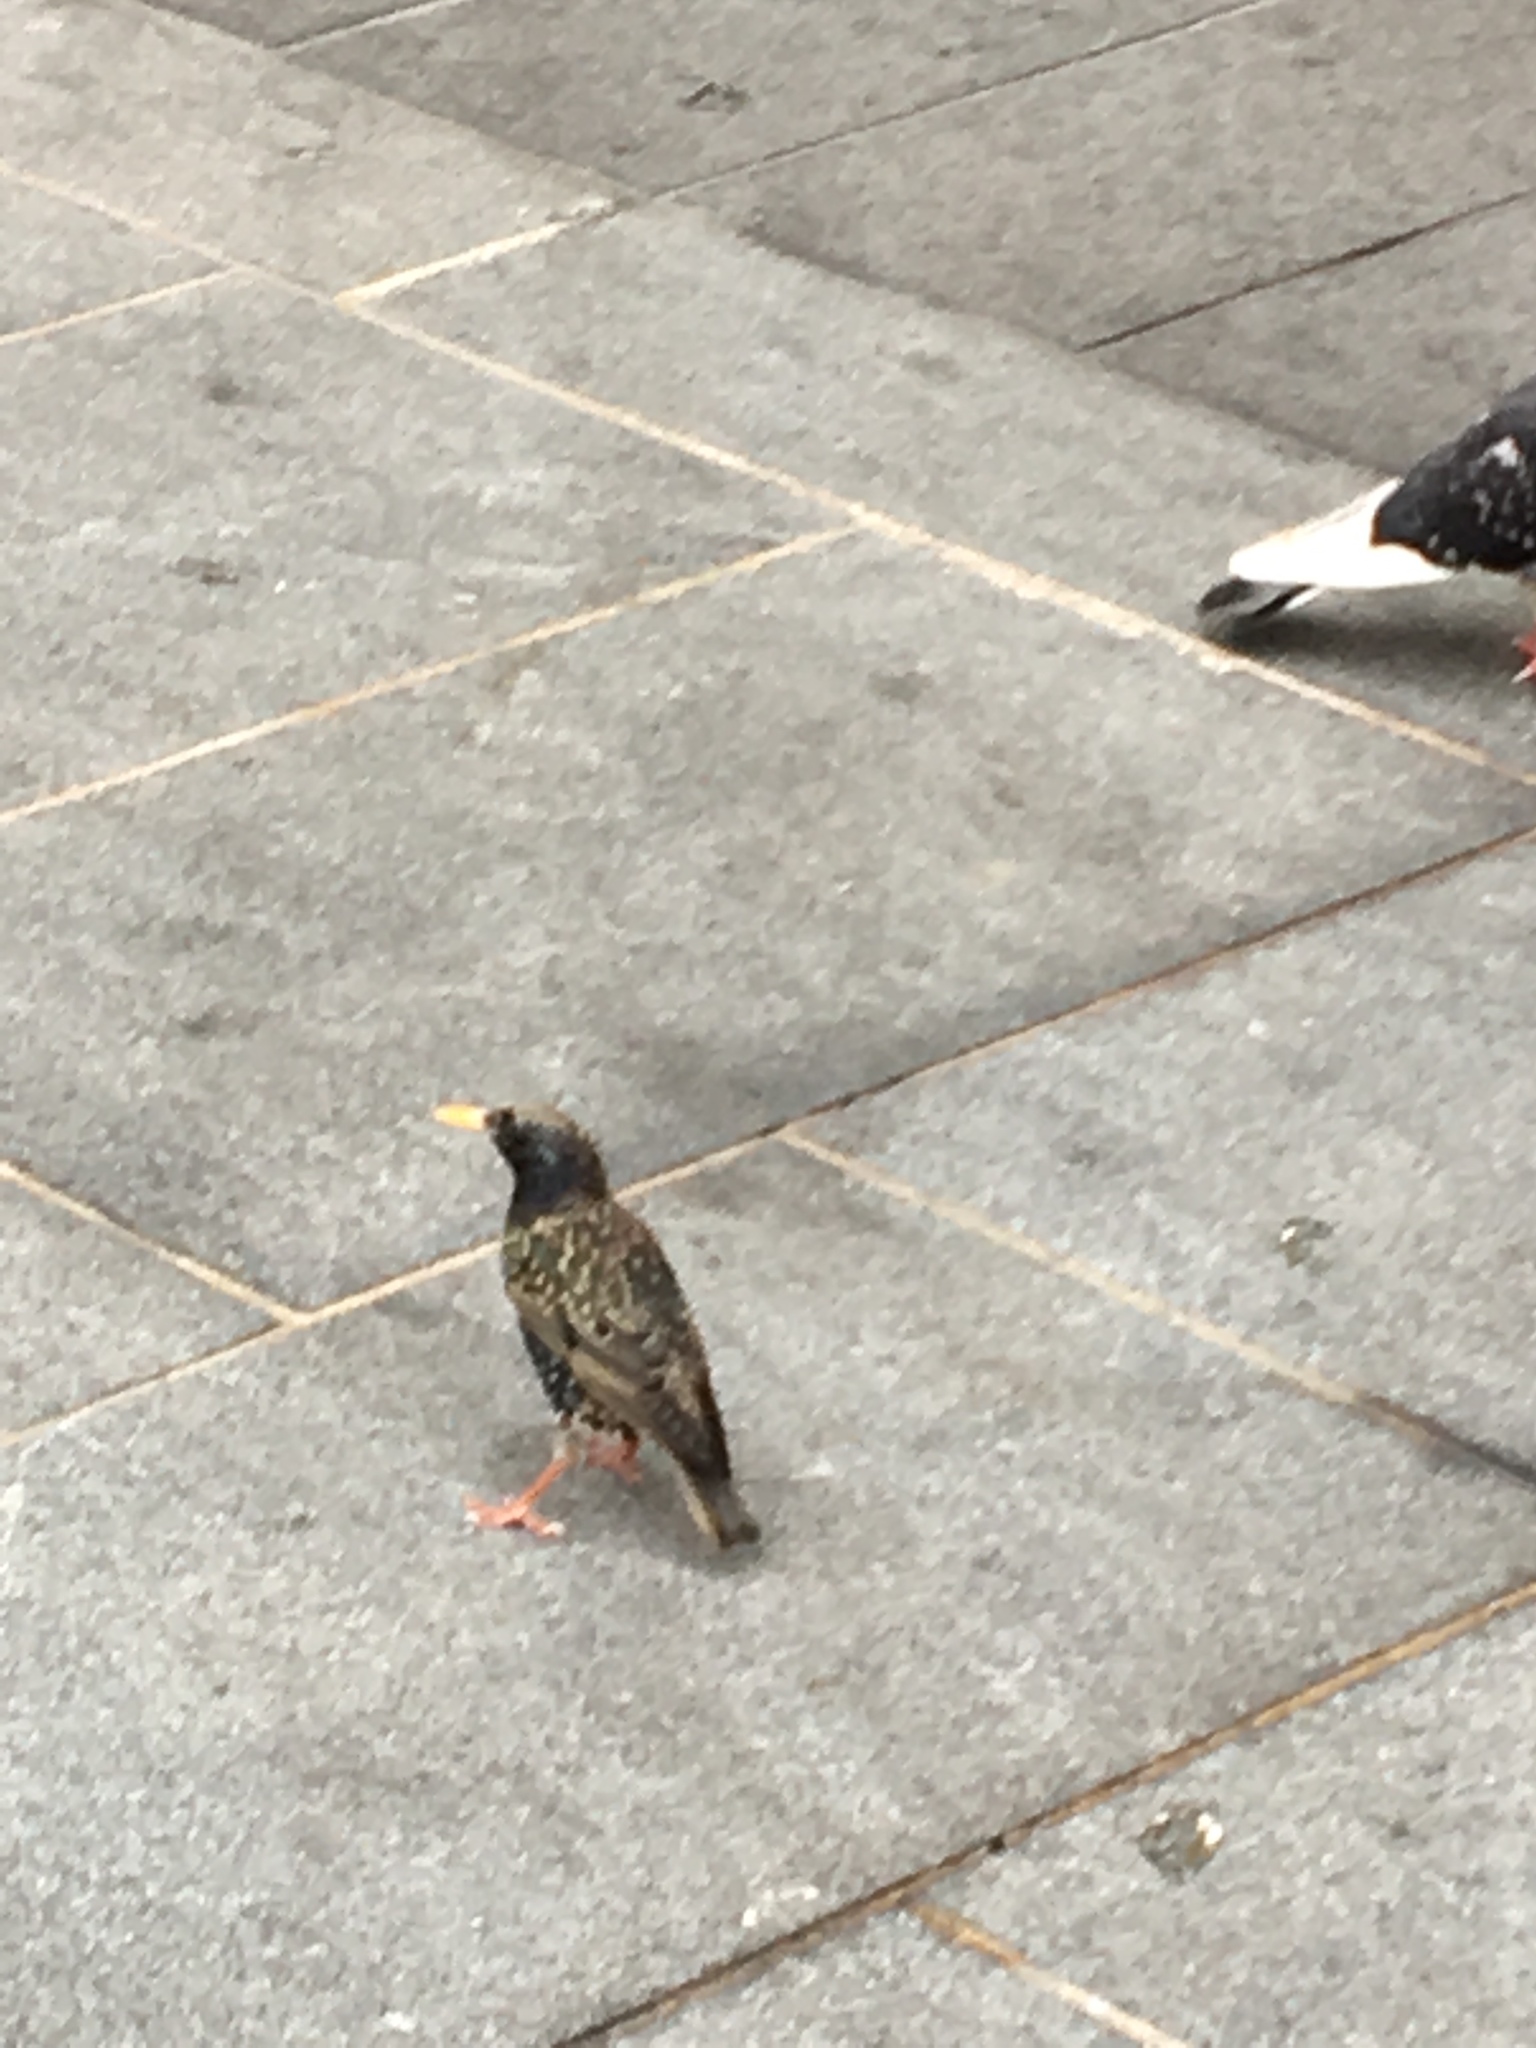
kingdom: Animalia
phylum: Chordata
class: Aves
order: Passeriformes
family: Sturnidae
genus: Sturnus
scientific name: Sturnus vulgaris
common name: Common starling
